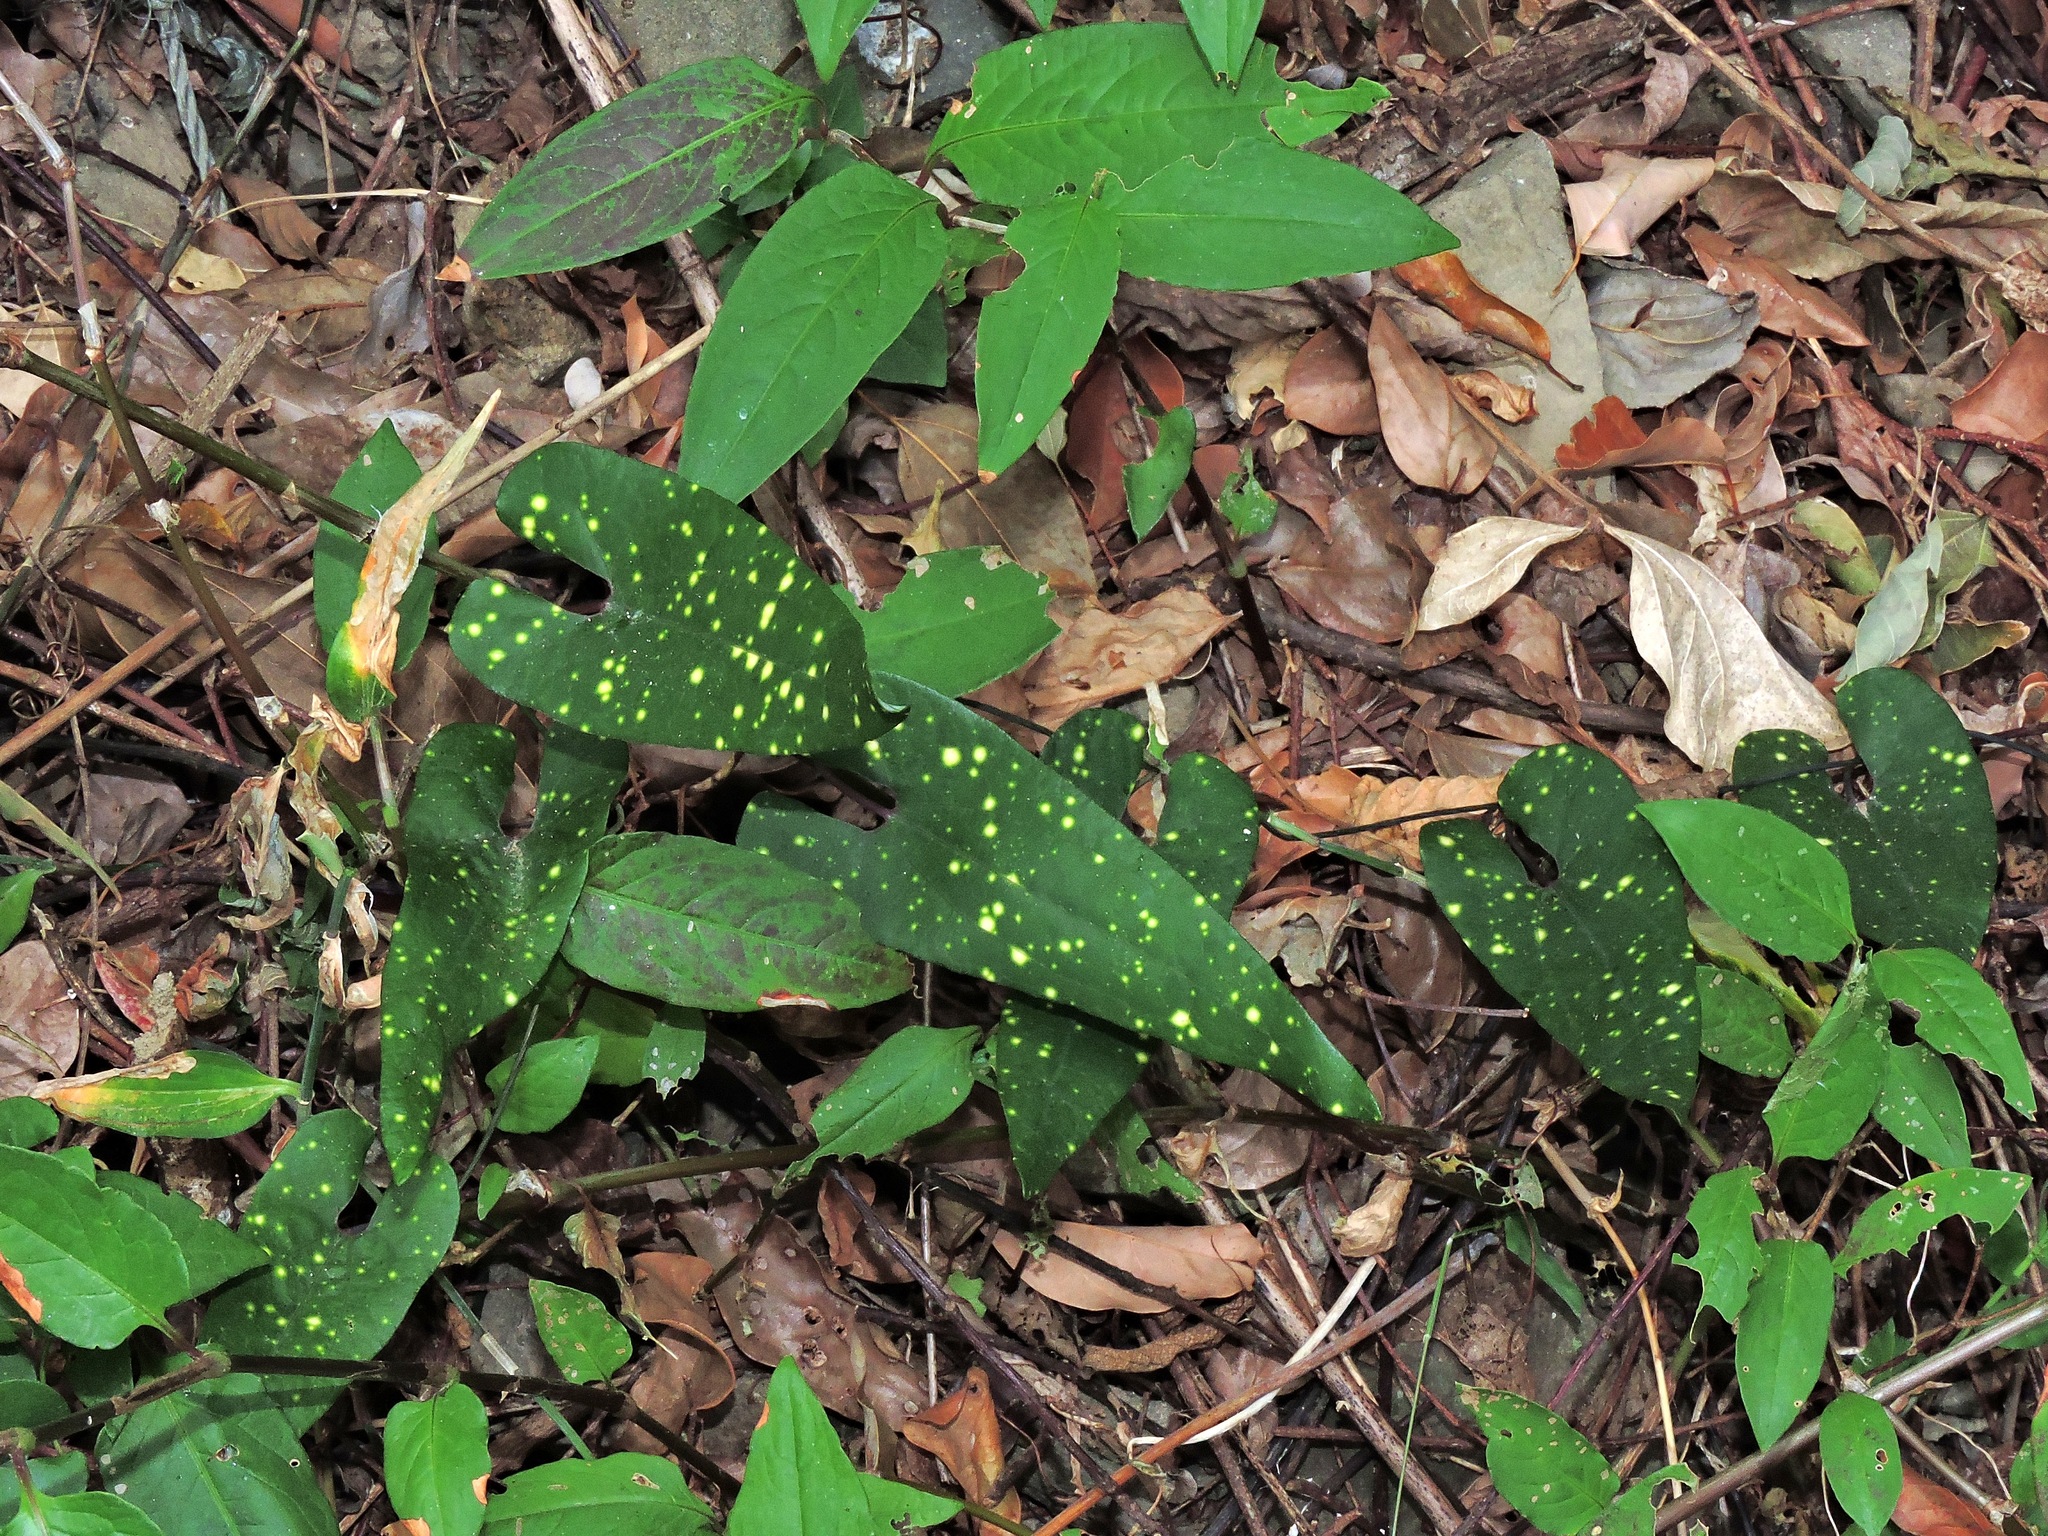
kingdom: Plantae
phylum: Tracheophyta
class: Magnoliopsida
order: Piperales
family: Aristolochiaceae
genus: Aristolochia
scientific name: Aristolochia foveolata
